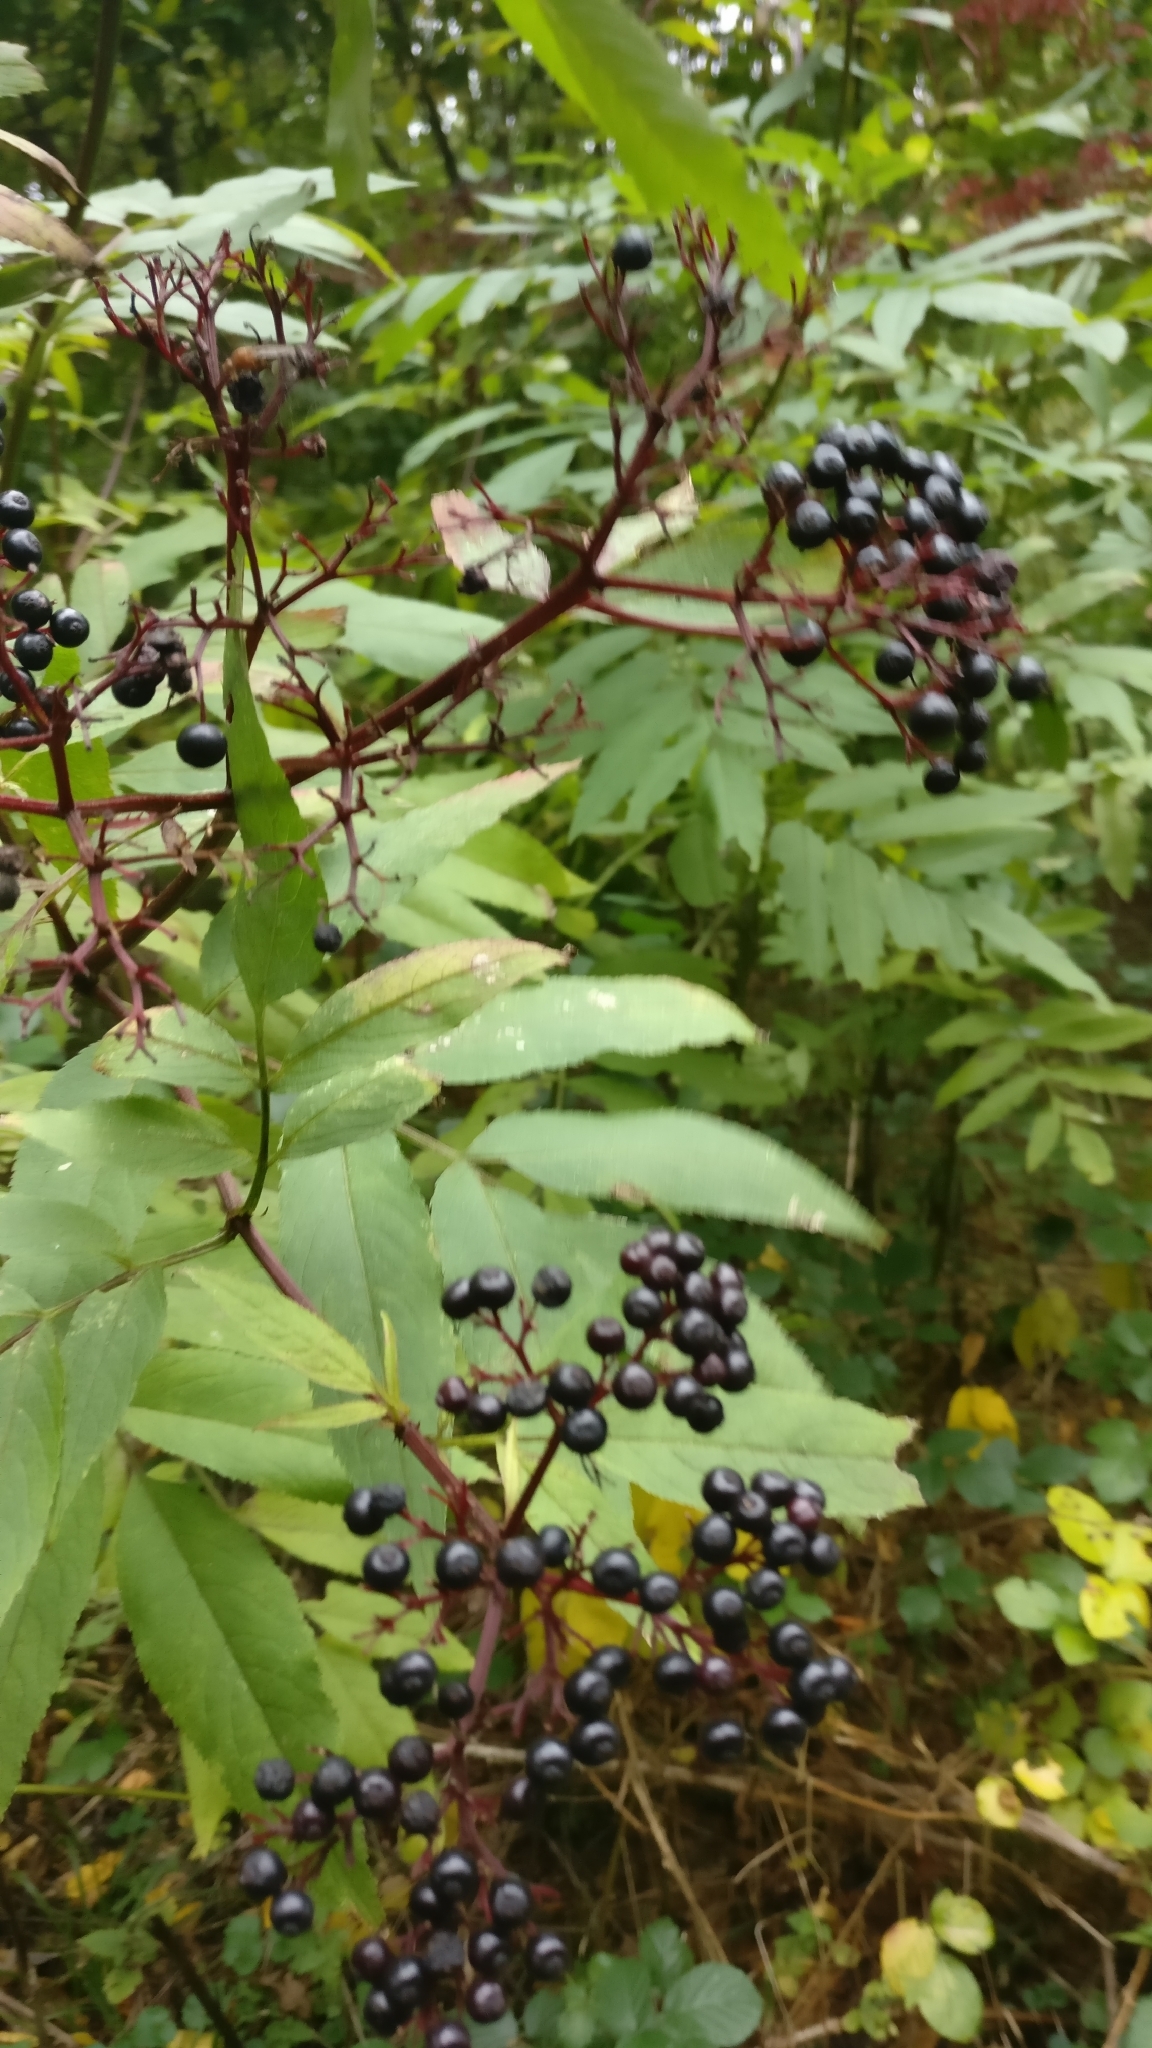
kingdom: Plantae
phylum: Tracheophyta
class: Magnoliopsida
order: Dipsacales
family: Viburnaceae
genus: Sambucus
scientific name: Sambucus nigra
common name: Elder
